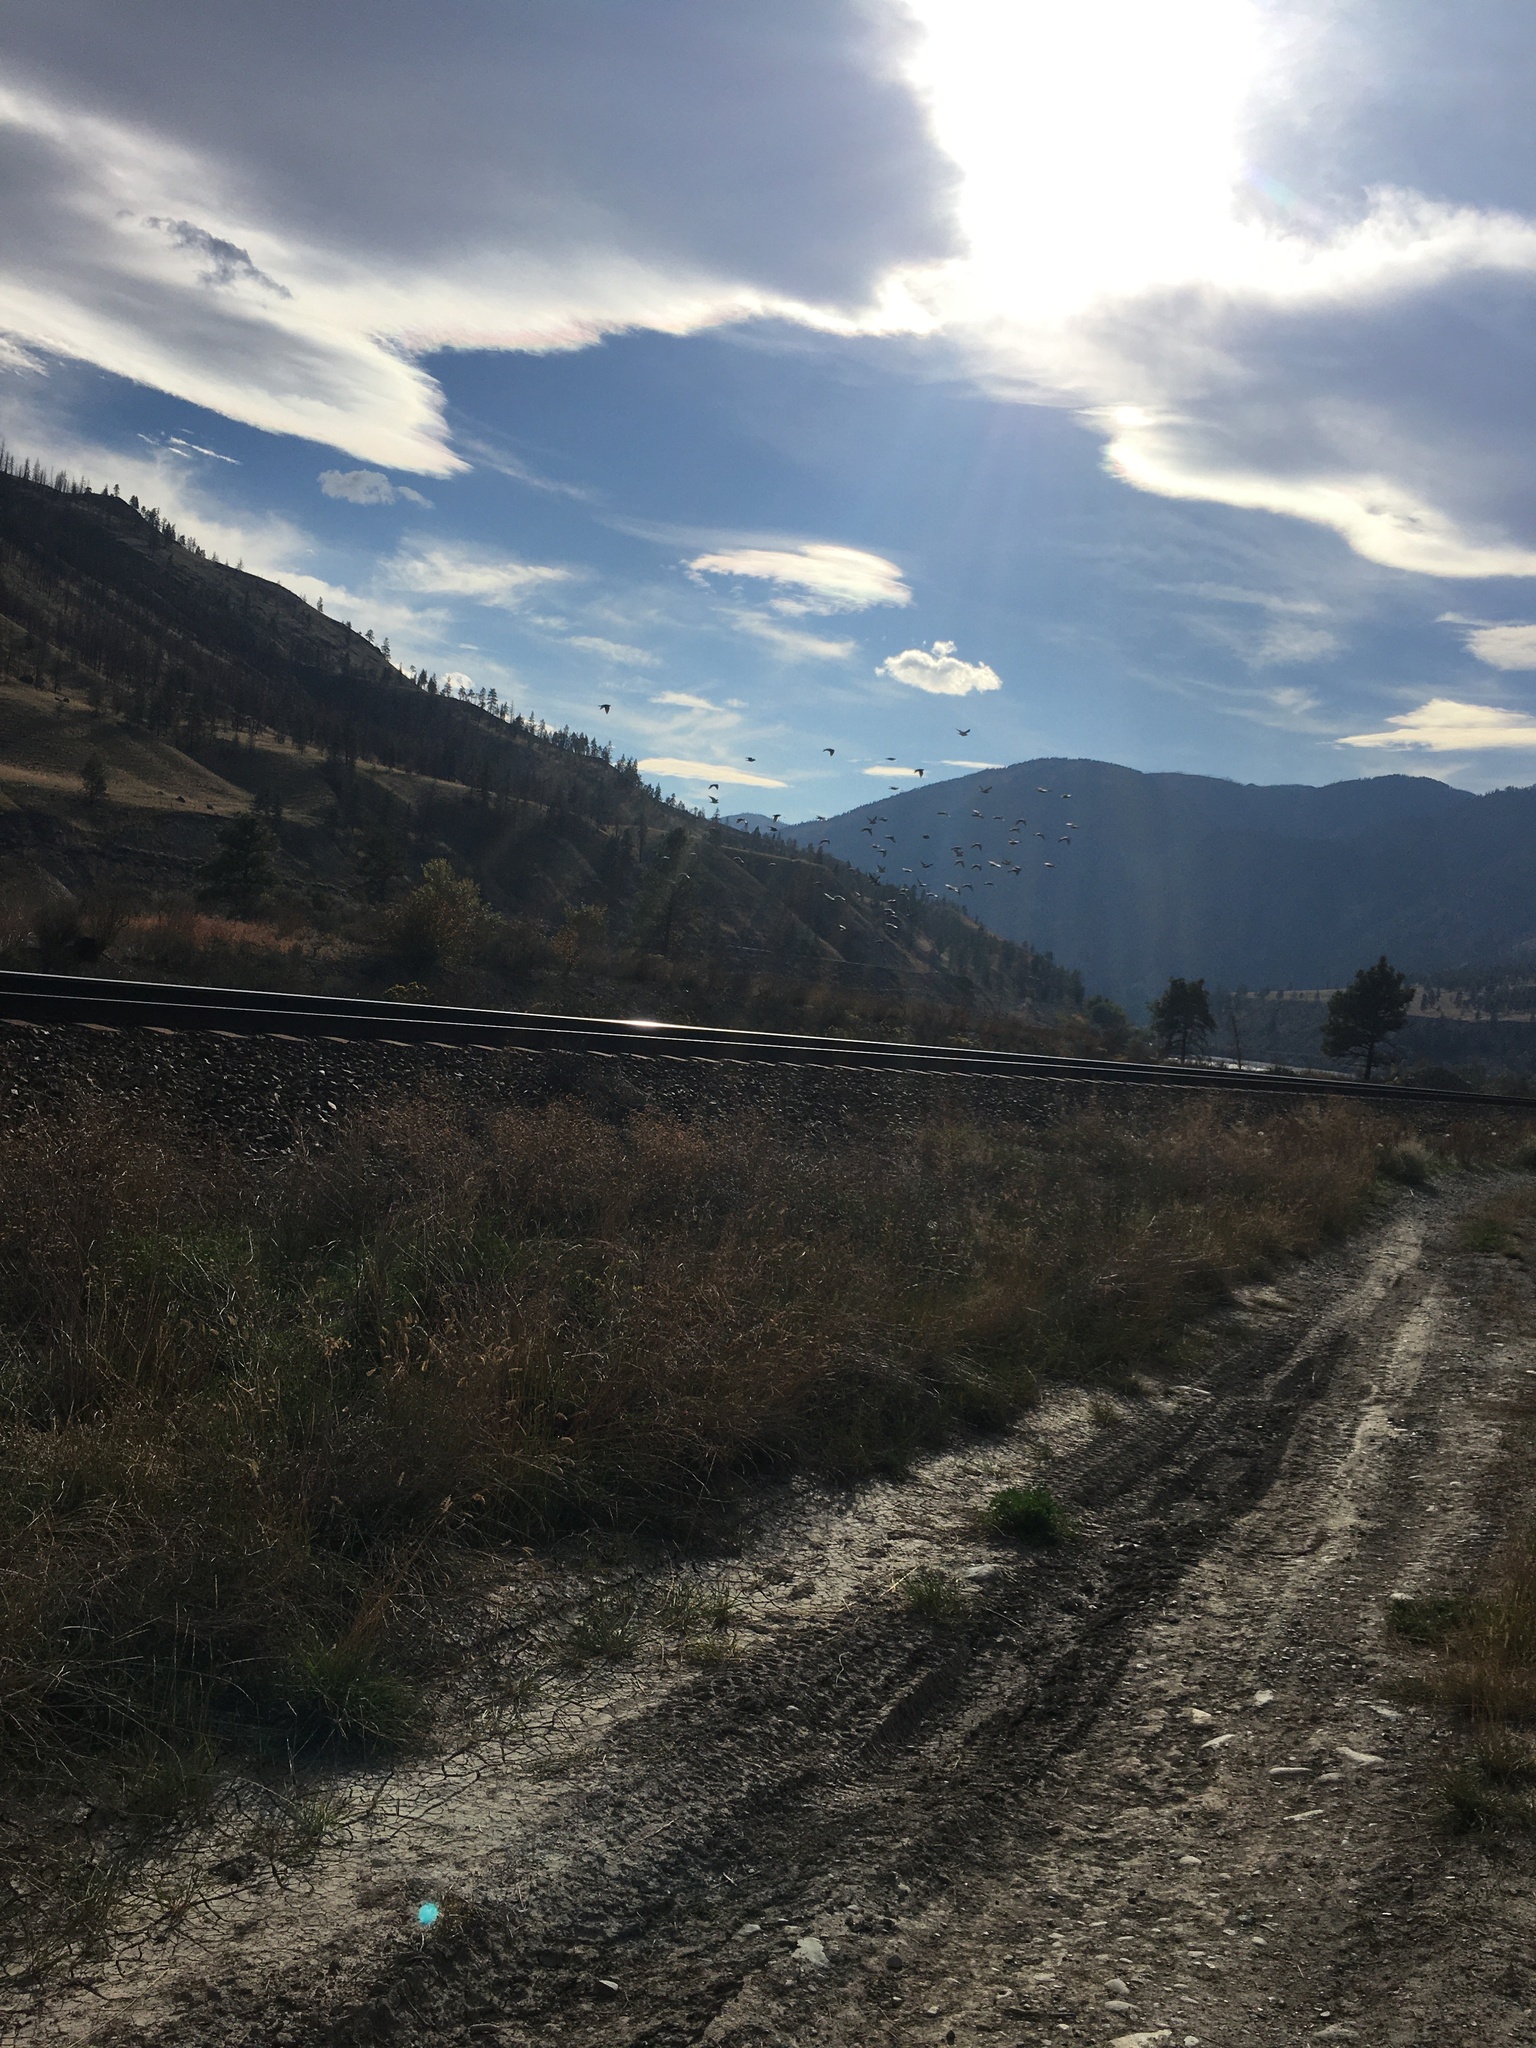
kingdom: Animalia
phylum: Chordata
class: Aves
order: Columbiformes
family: Columbidae
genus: Columba
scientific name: Columba livia
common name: Rock pigeon
